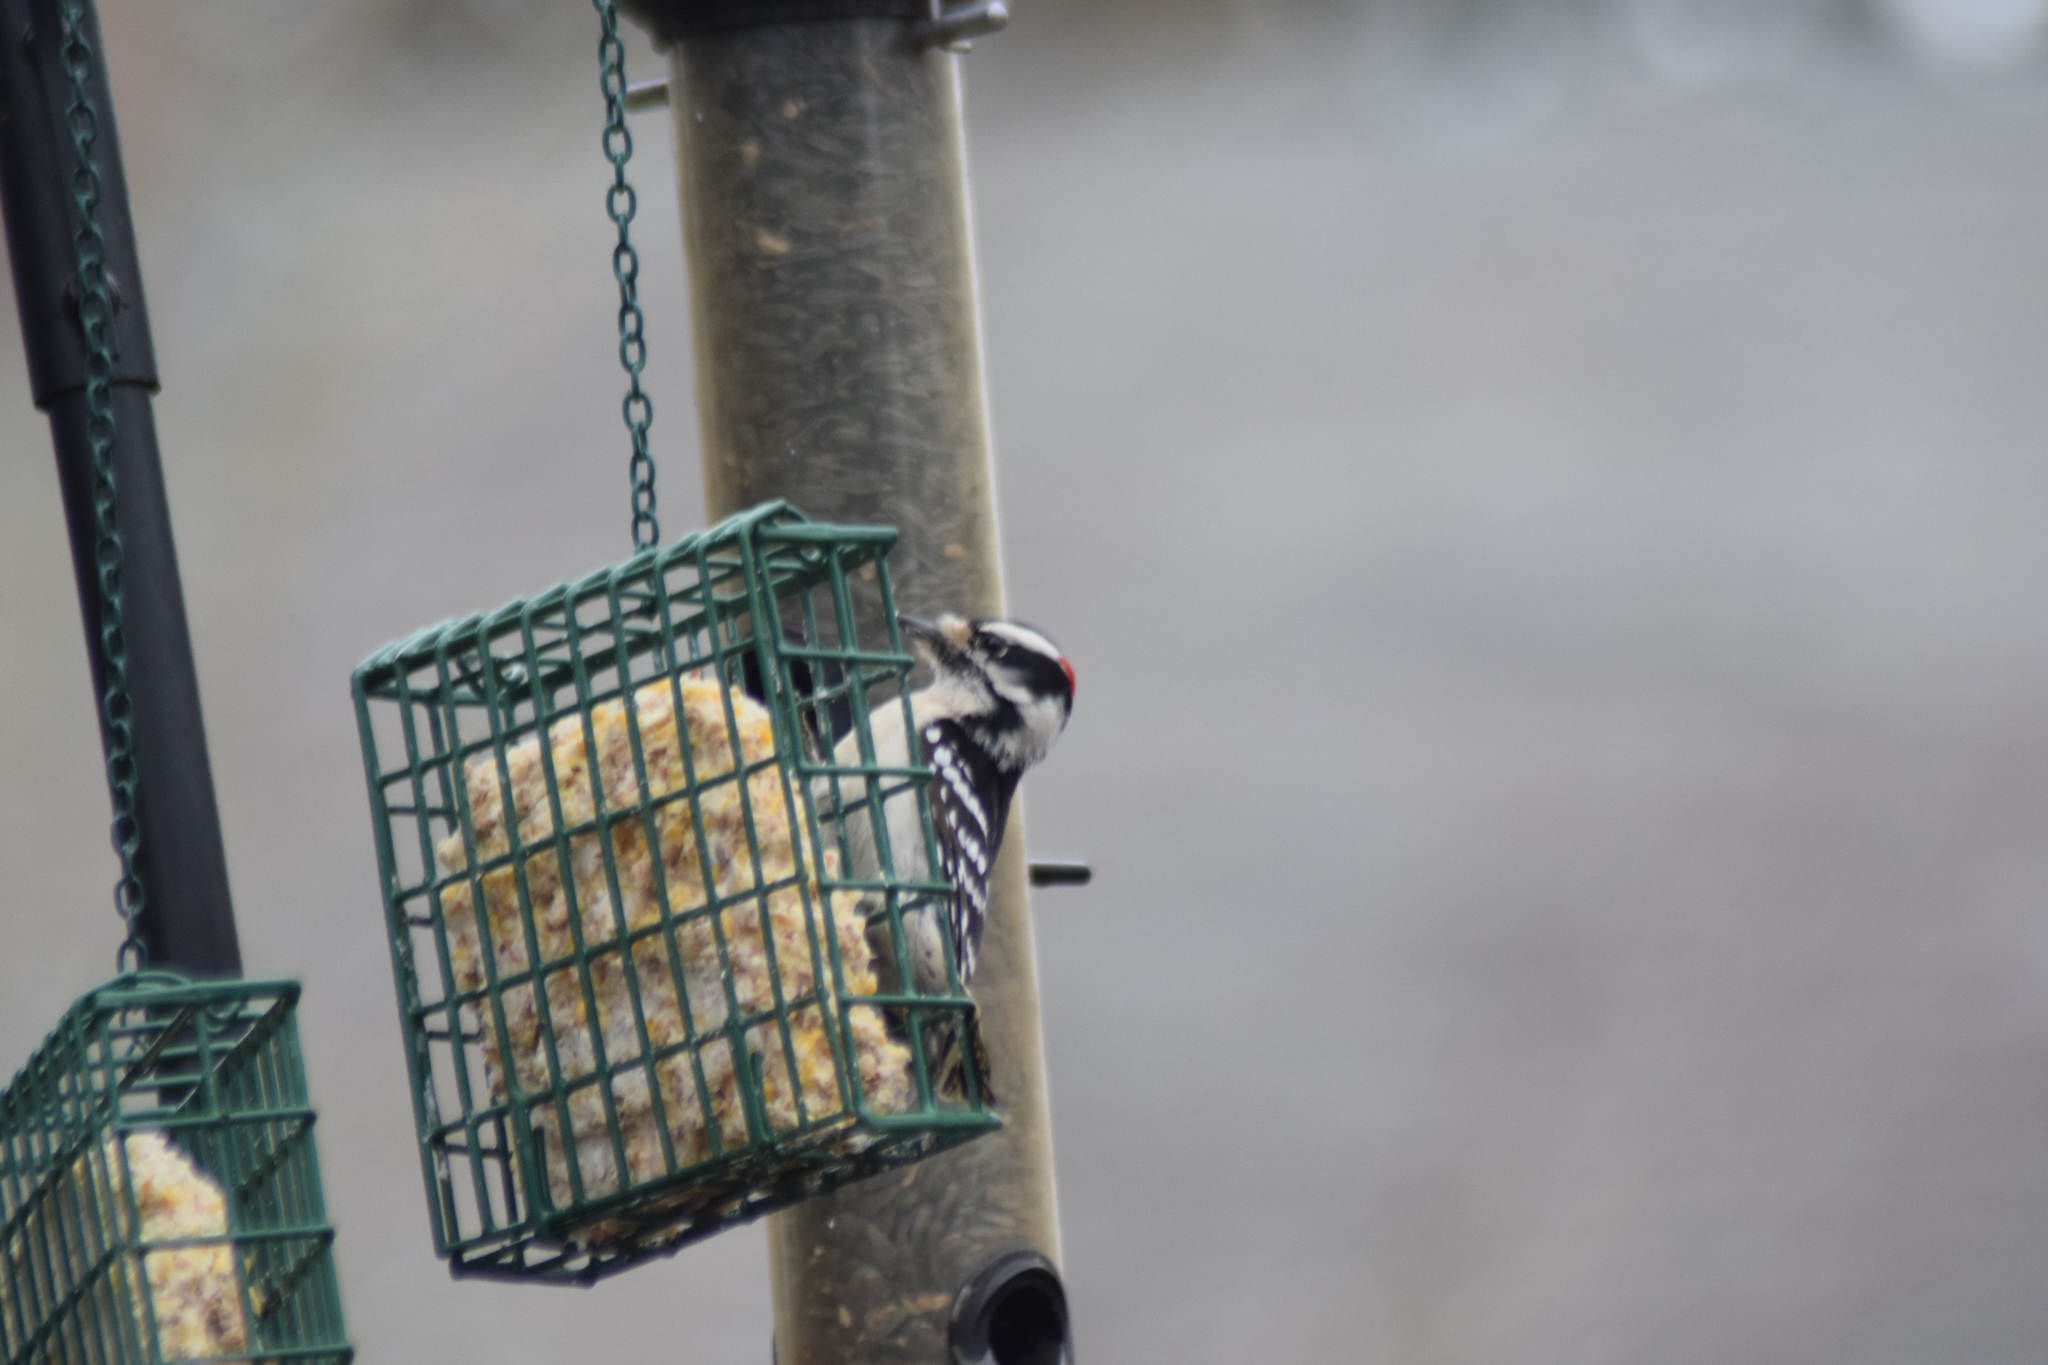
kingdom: Animalia
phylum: Chordata
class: Aves
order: Piciformes
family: Picidae
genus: Dryobates
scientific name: Dryobates pubescens
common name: Downy woodpecker
